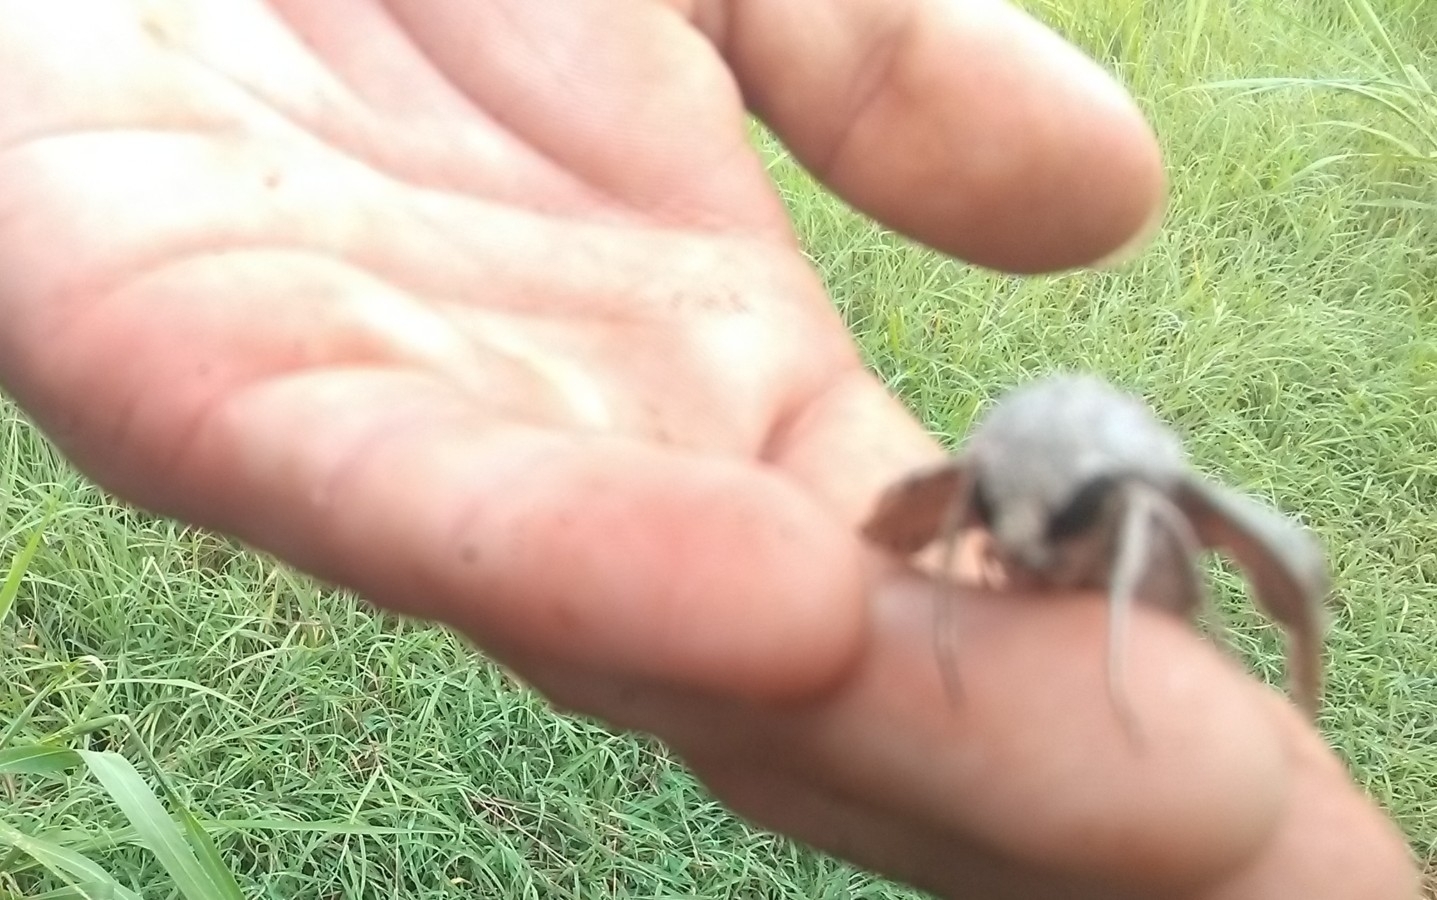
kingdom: Animalia
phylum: Arthropoda
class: Insecta
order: Lepidoptera
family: Sphingidae
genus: Erinnyis
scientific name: Erinnyis ello
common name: Ello sphinx
